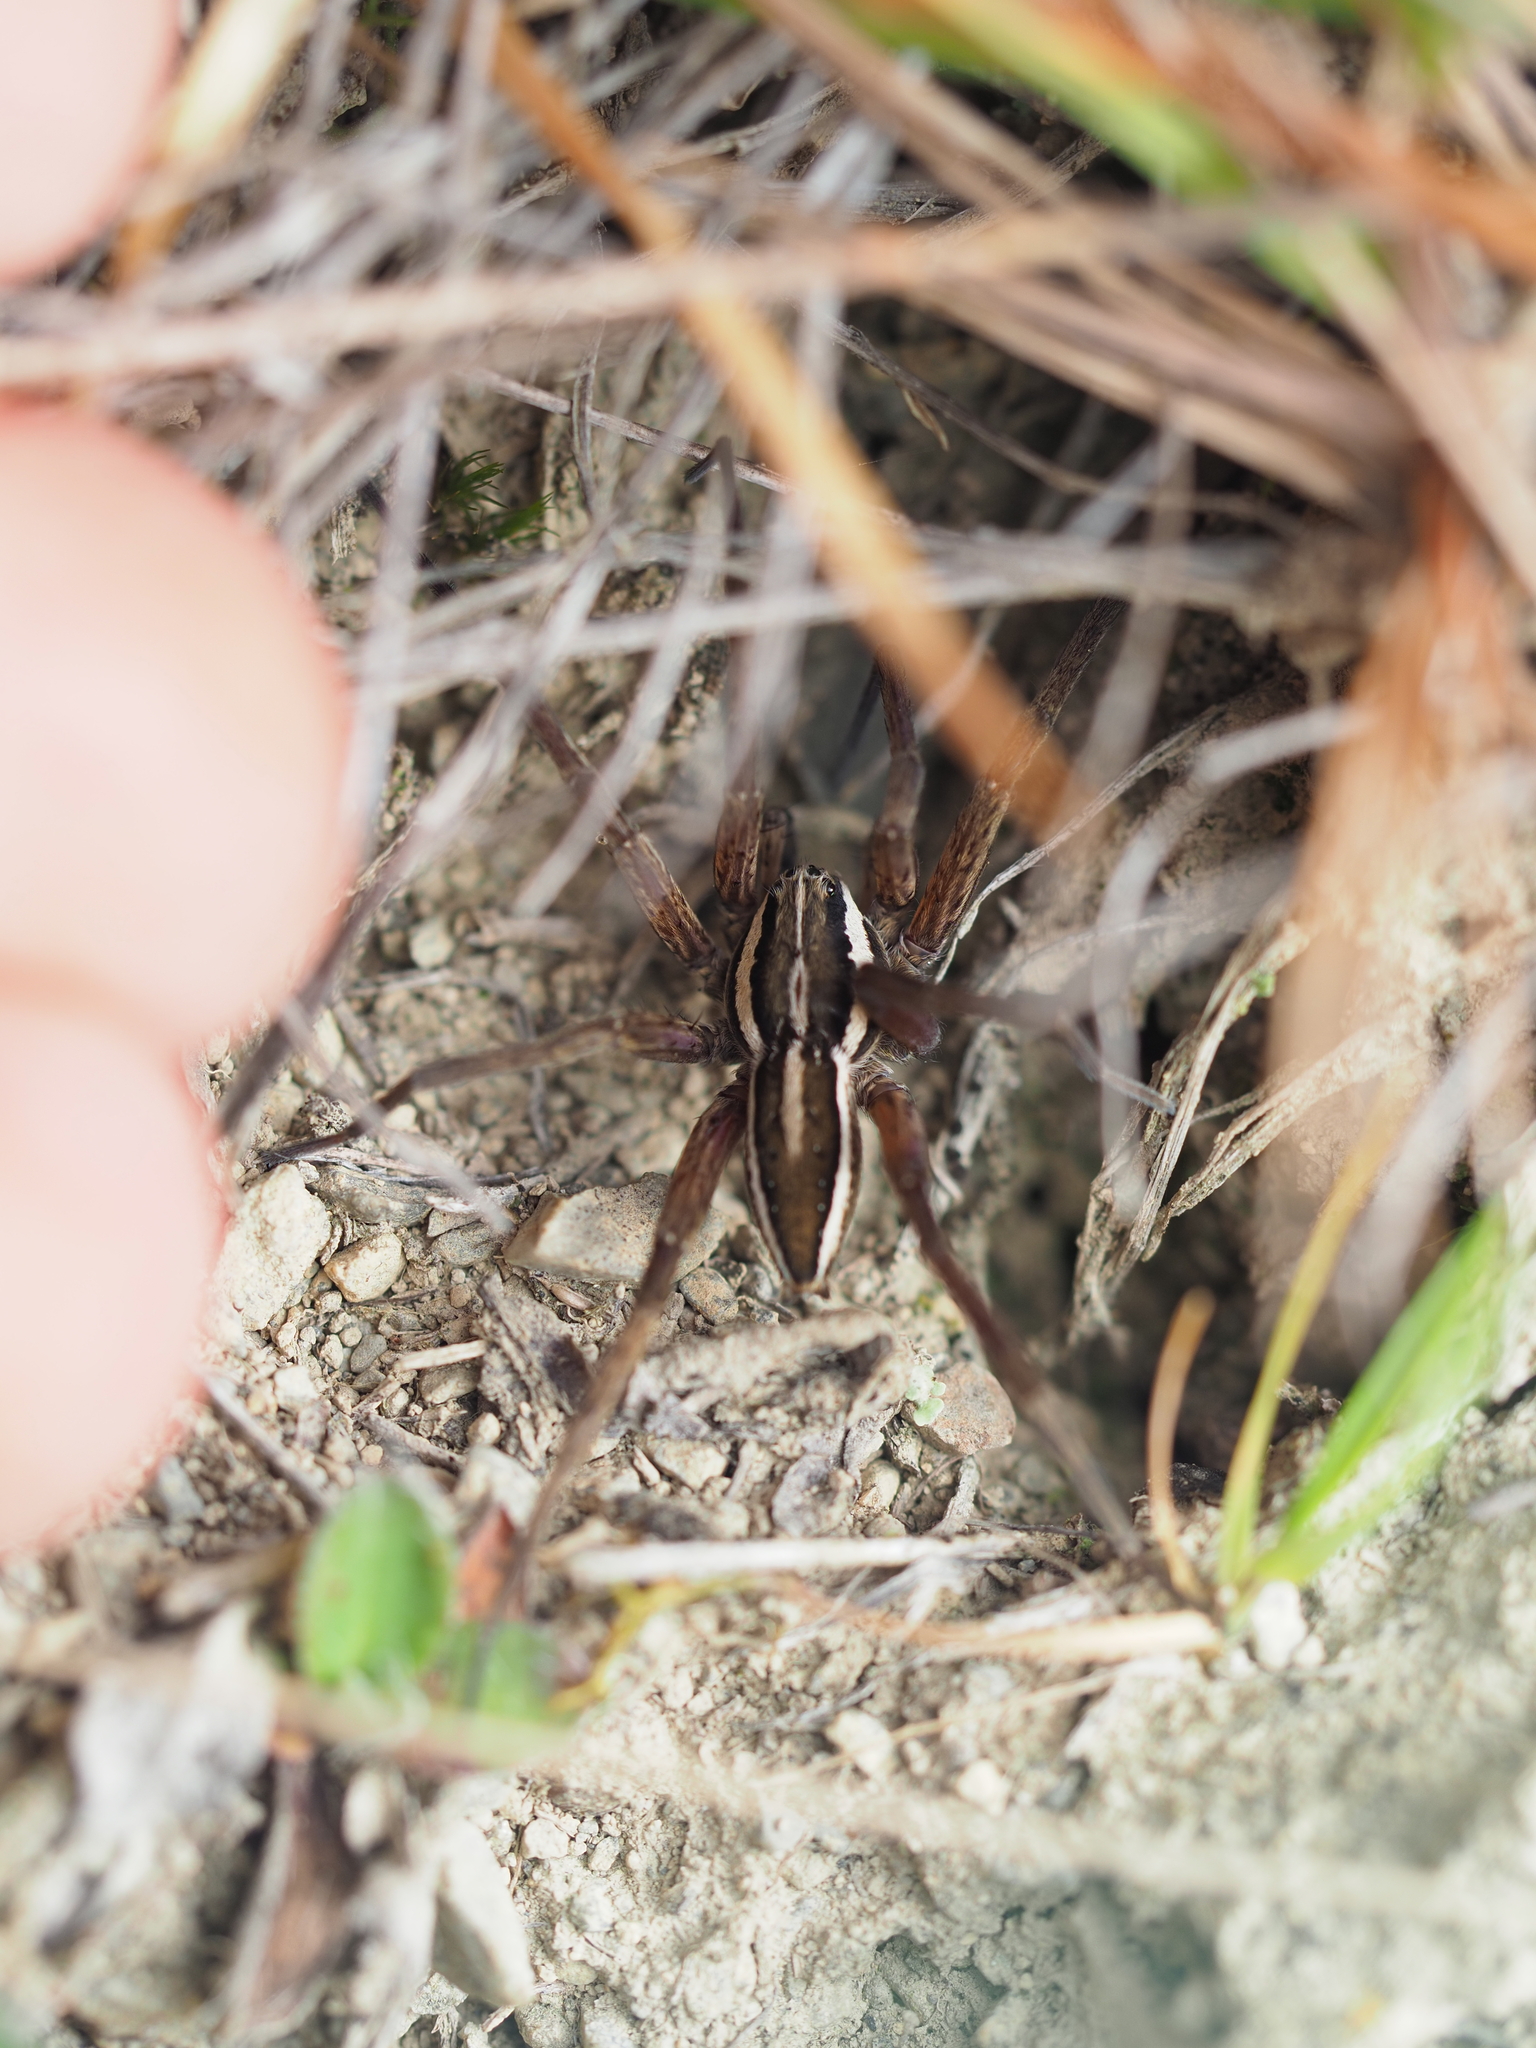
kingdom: Animalia
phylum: Arthropoda
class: Arachnida
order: Araneae
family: Pisauridae
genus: Dolomedes
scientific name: Dolomedes minor
